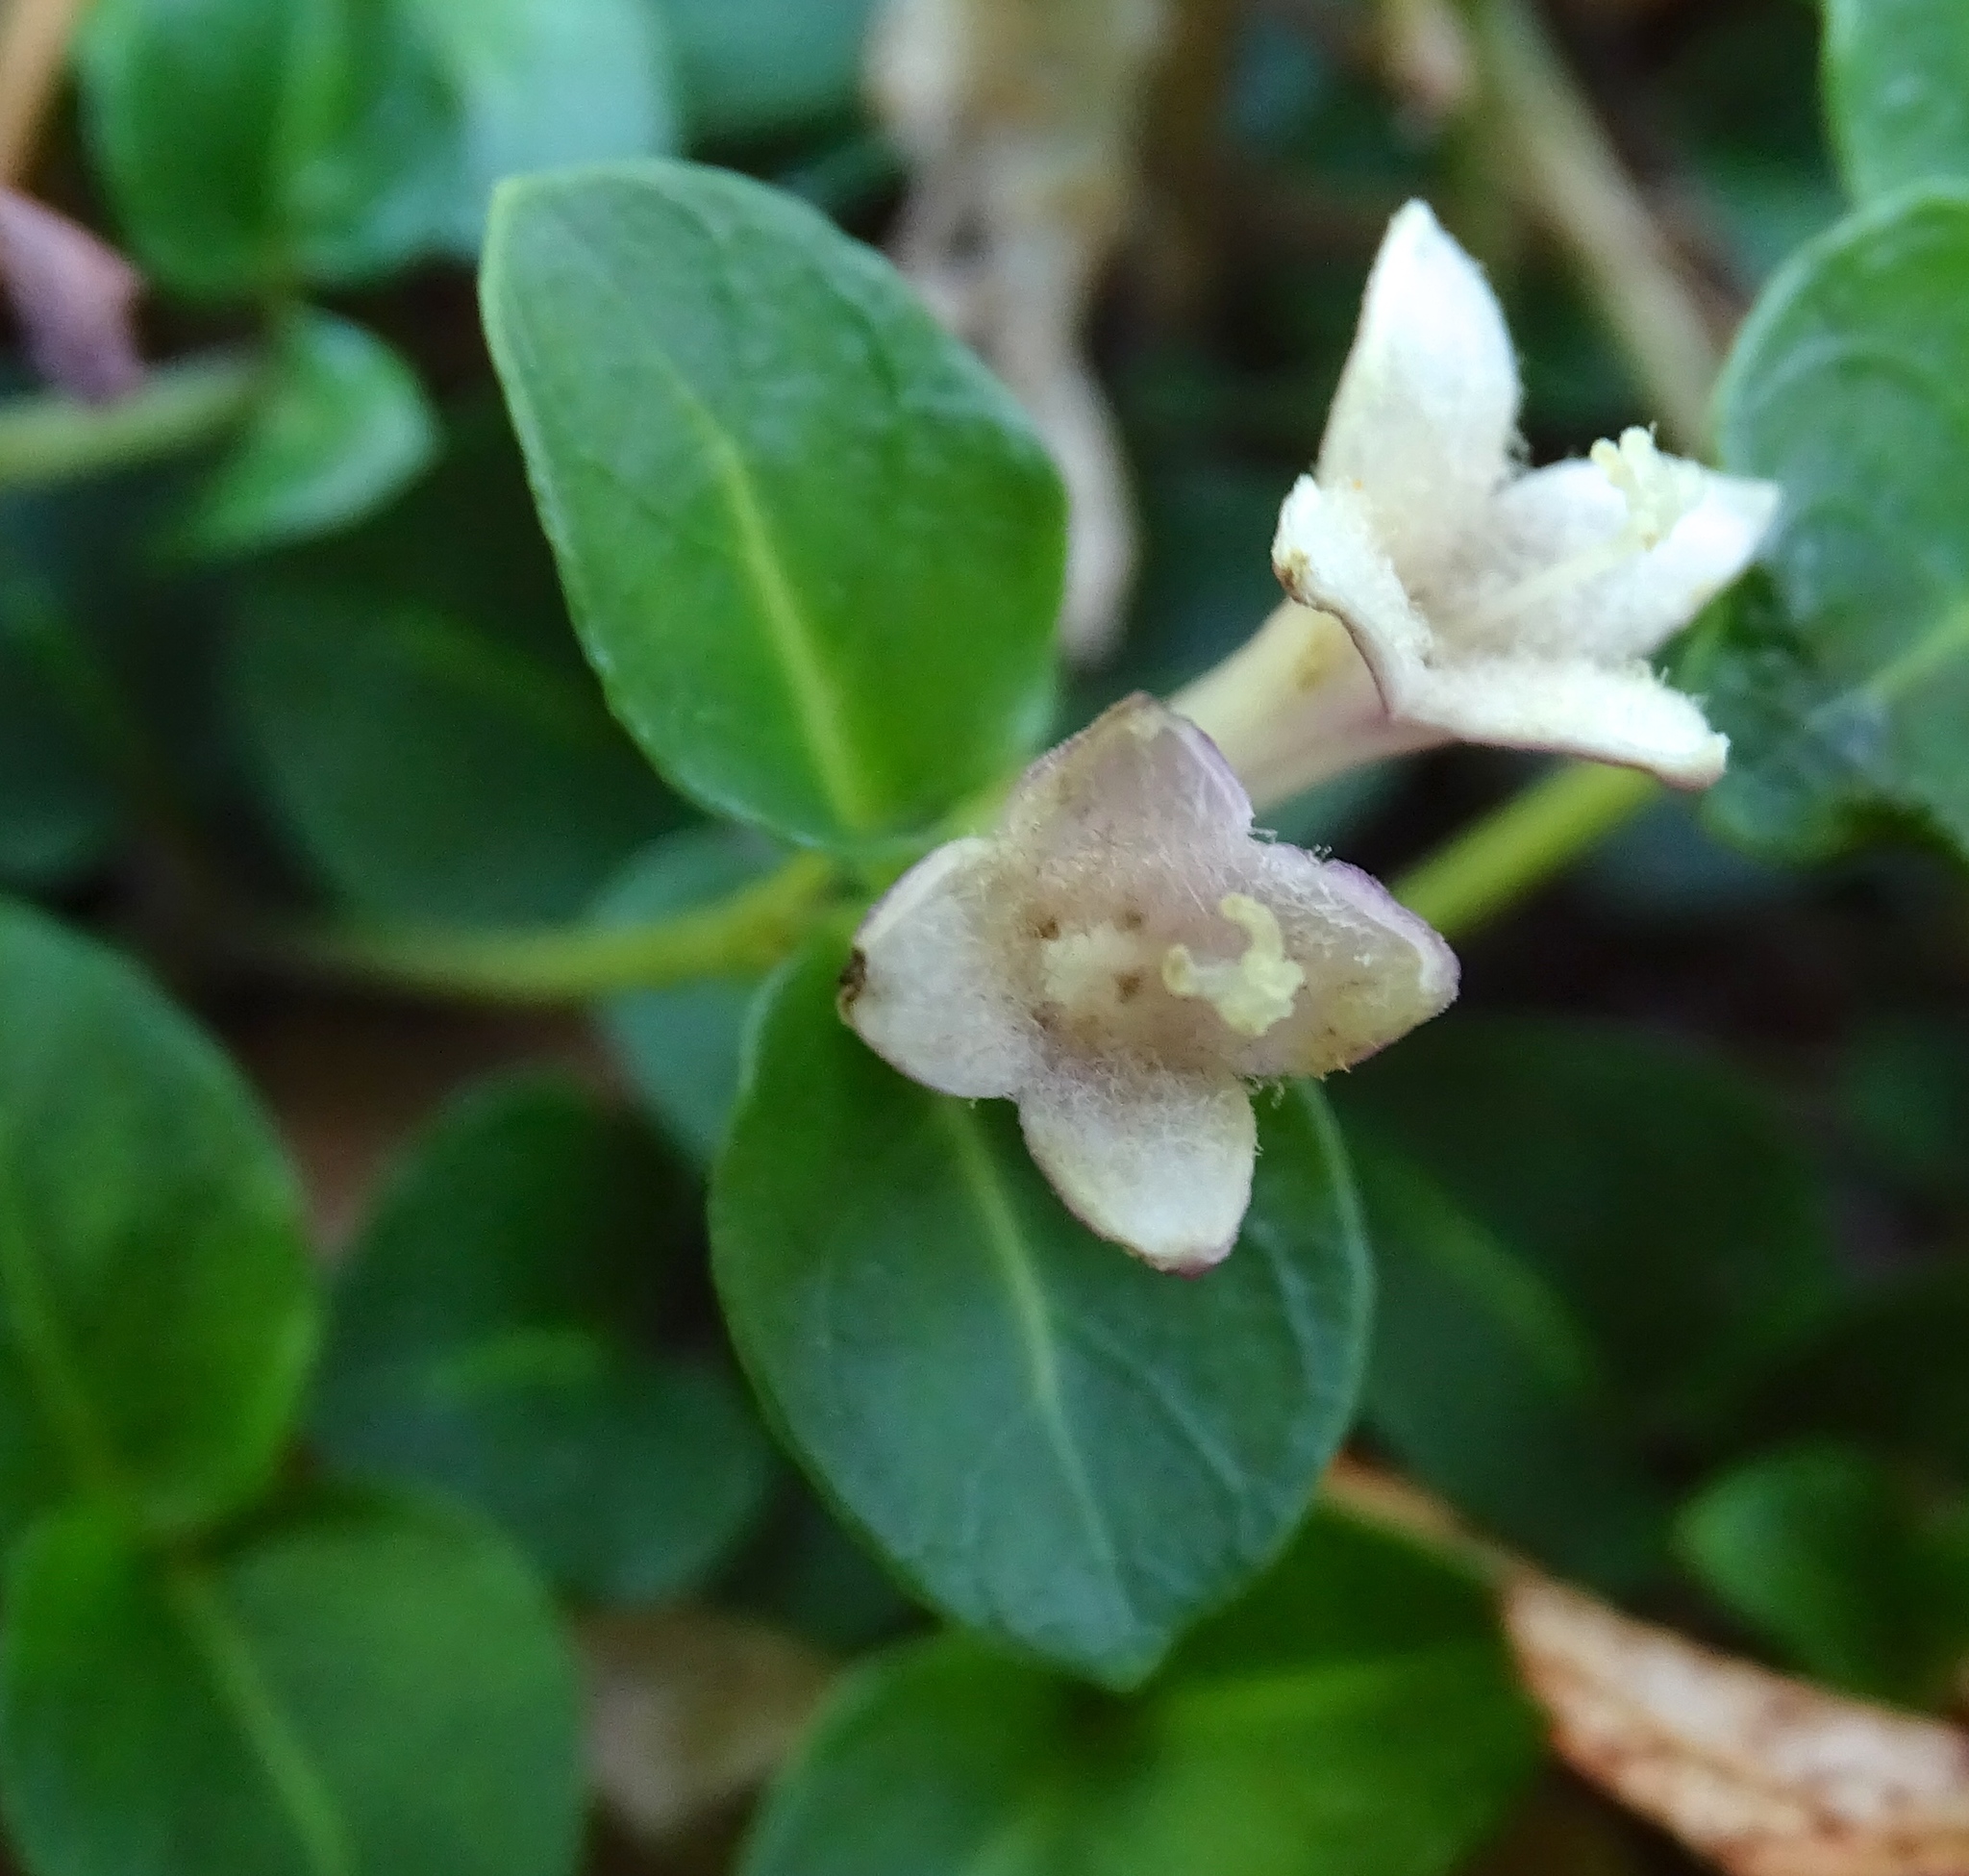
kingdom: Plantae
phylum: Tracheophyta
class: Magnoliopsida
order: Gentianales
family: Rubiaceae
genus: Mitchella
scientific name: Mitchella repens
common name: Partridge-berry
